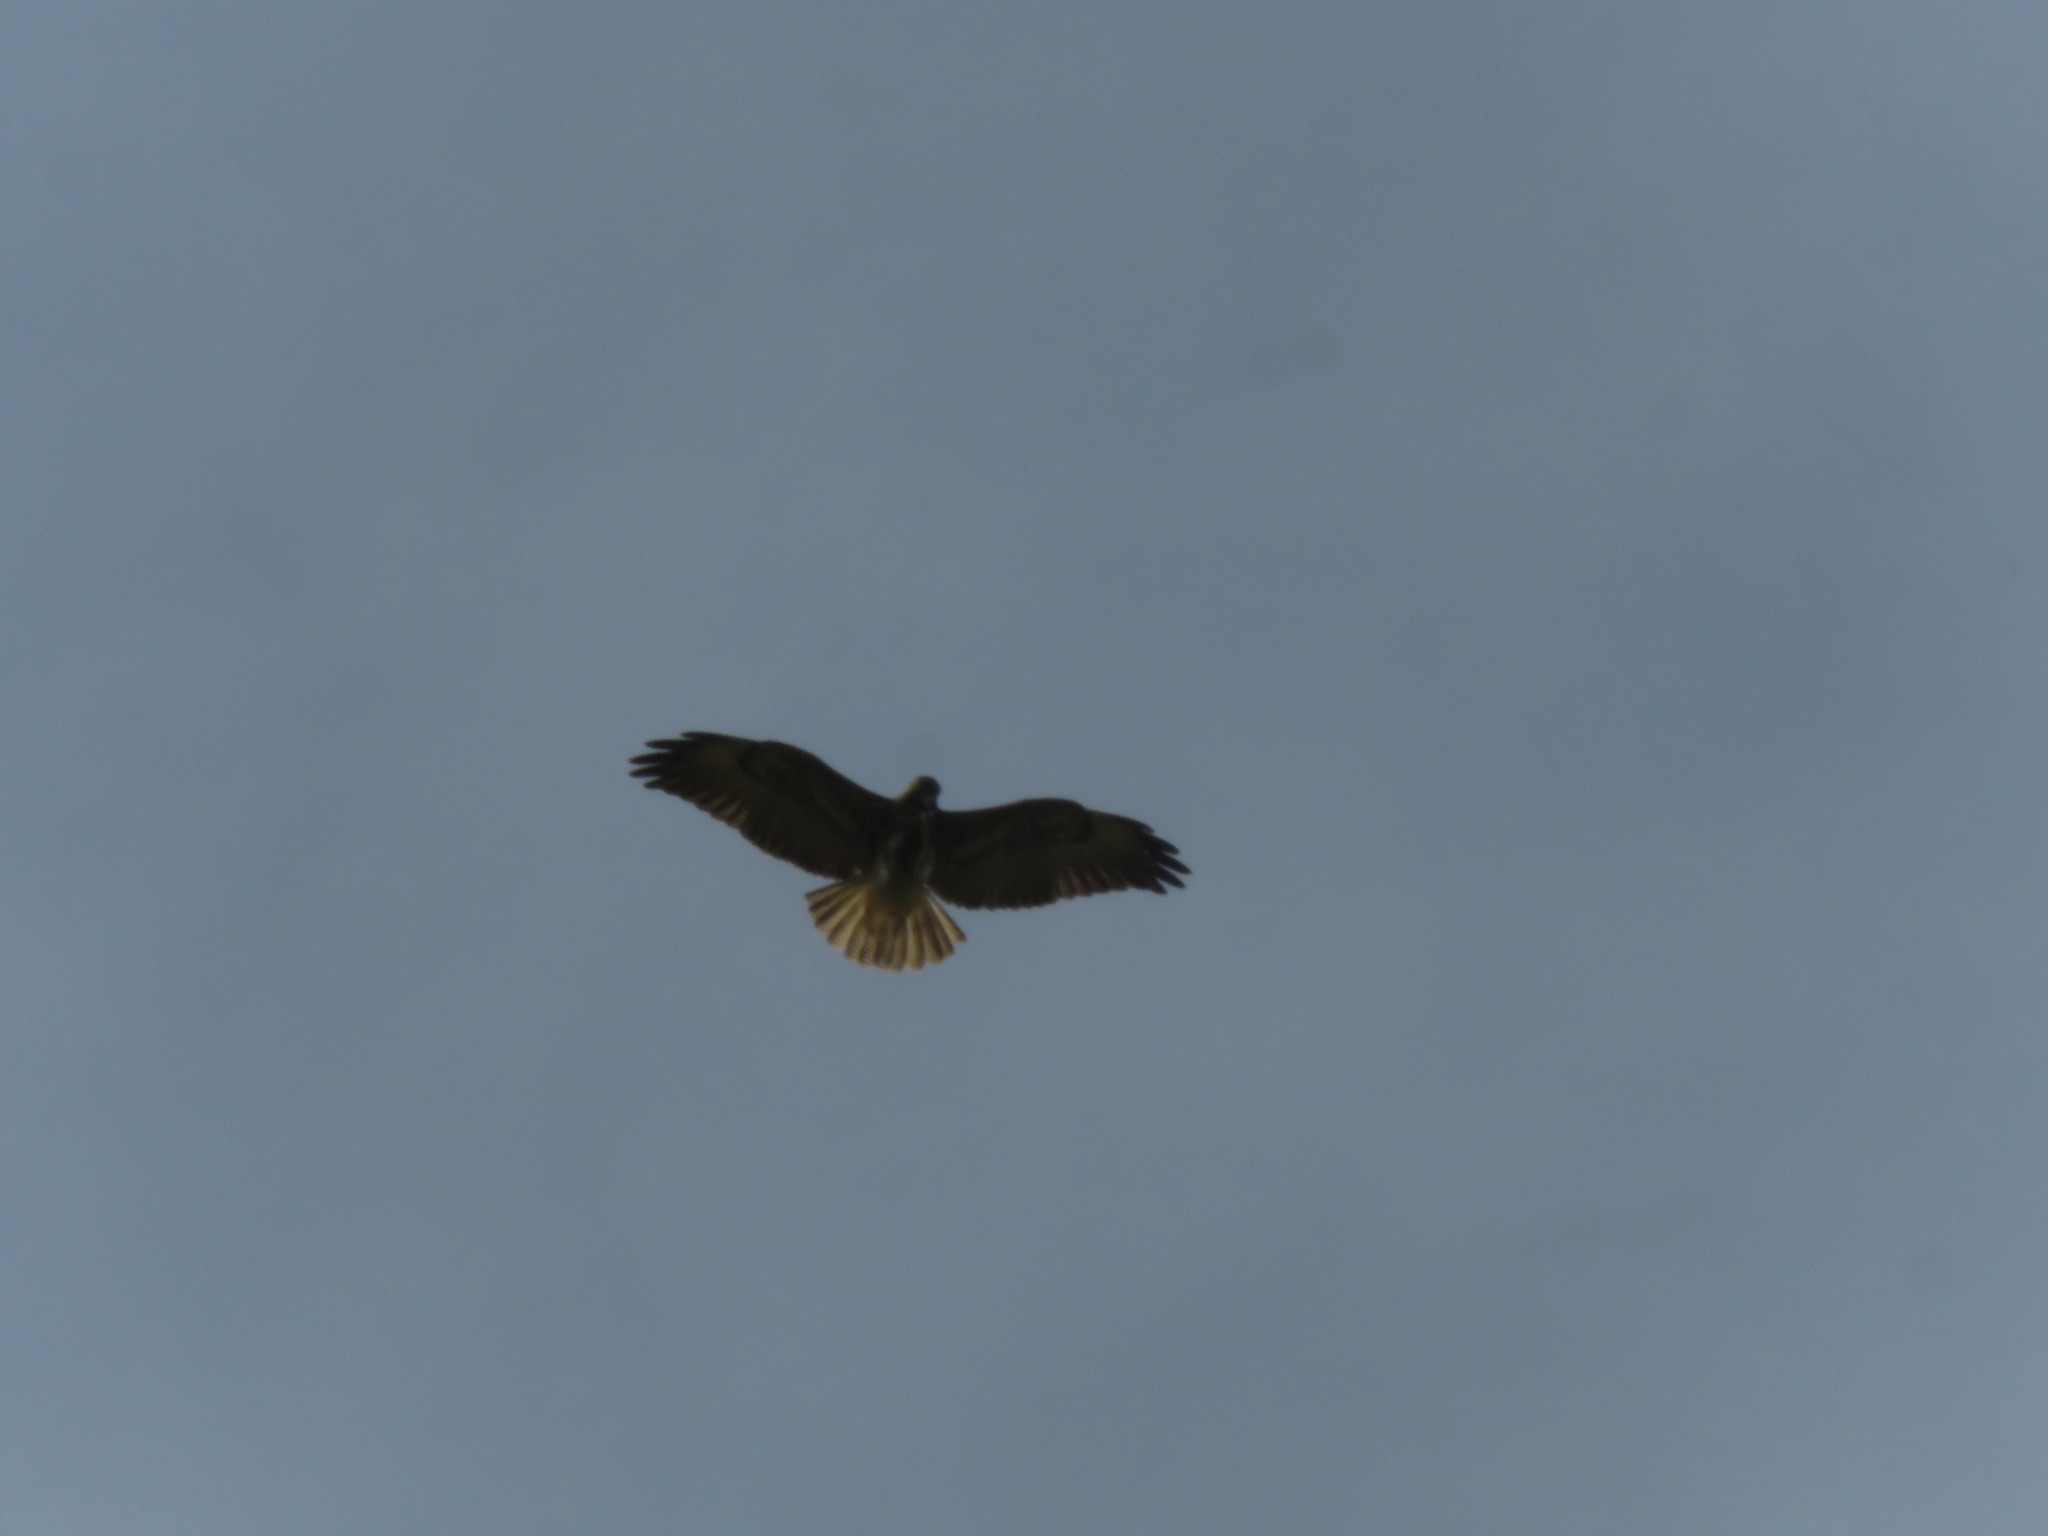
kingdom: Animalia
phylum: Chordata
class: Aves
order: Accipitriformes
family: Accipitridae
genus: Buteo
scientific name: Buteo albicaudatus
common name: White-tailed hawk
